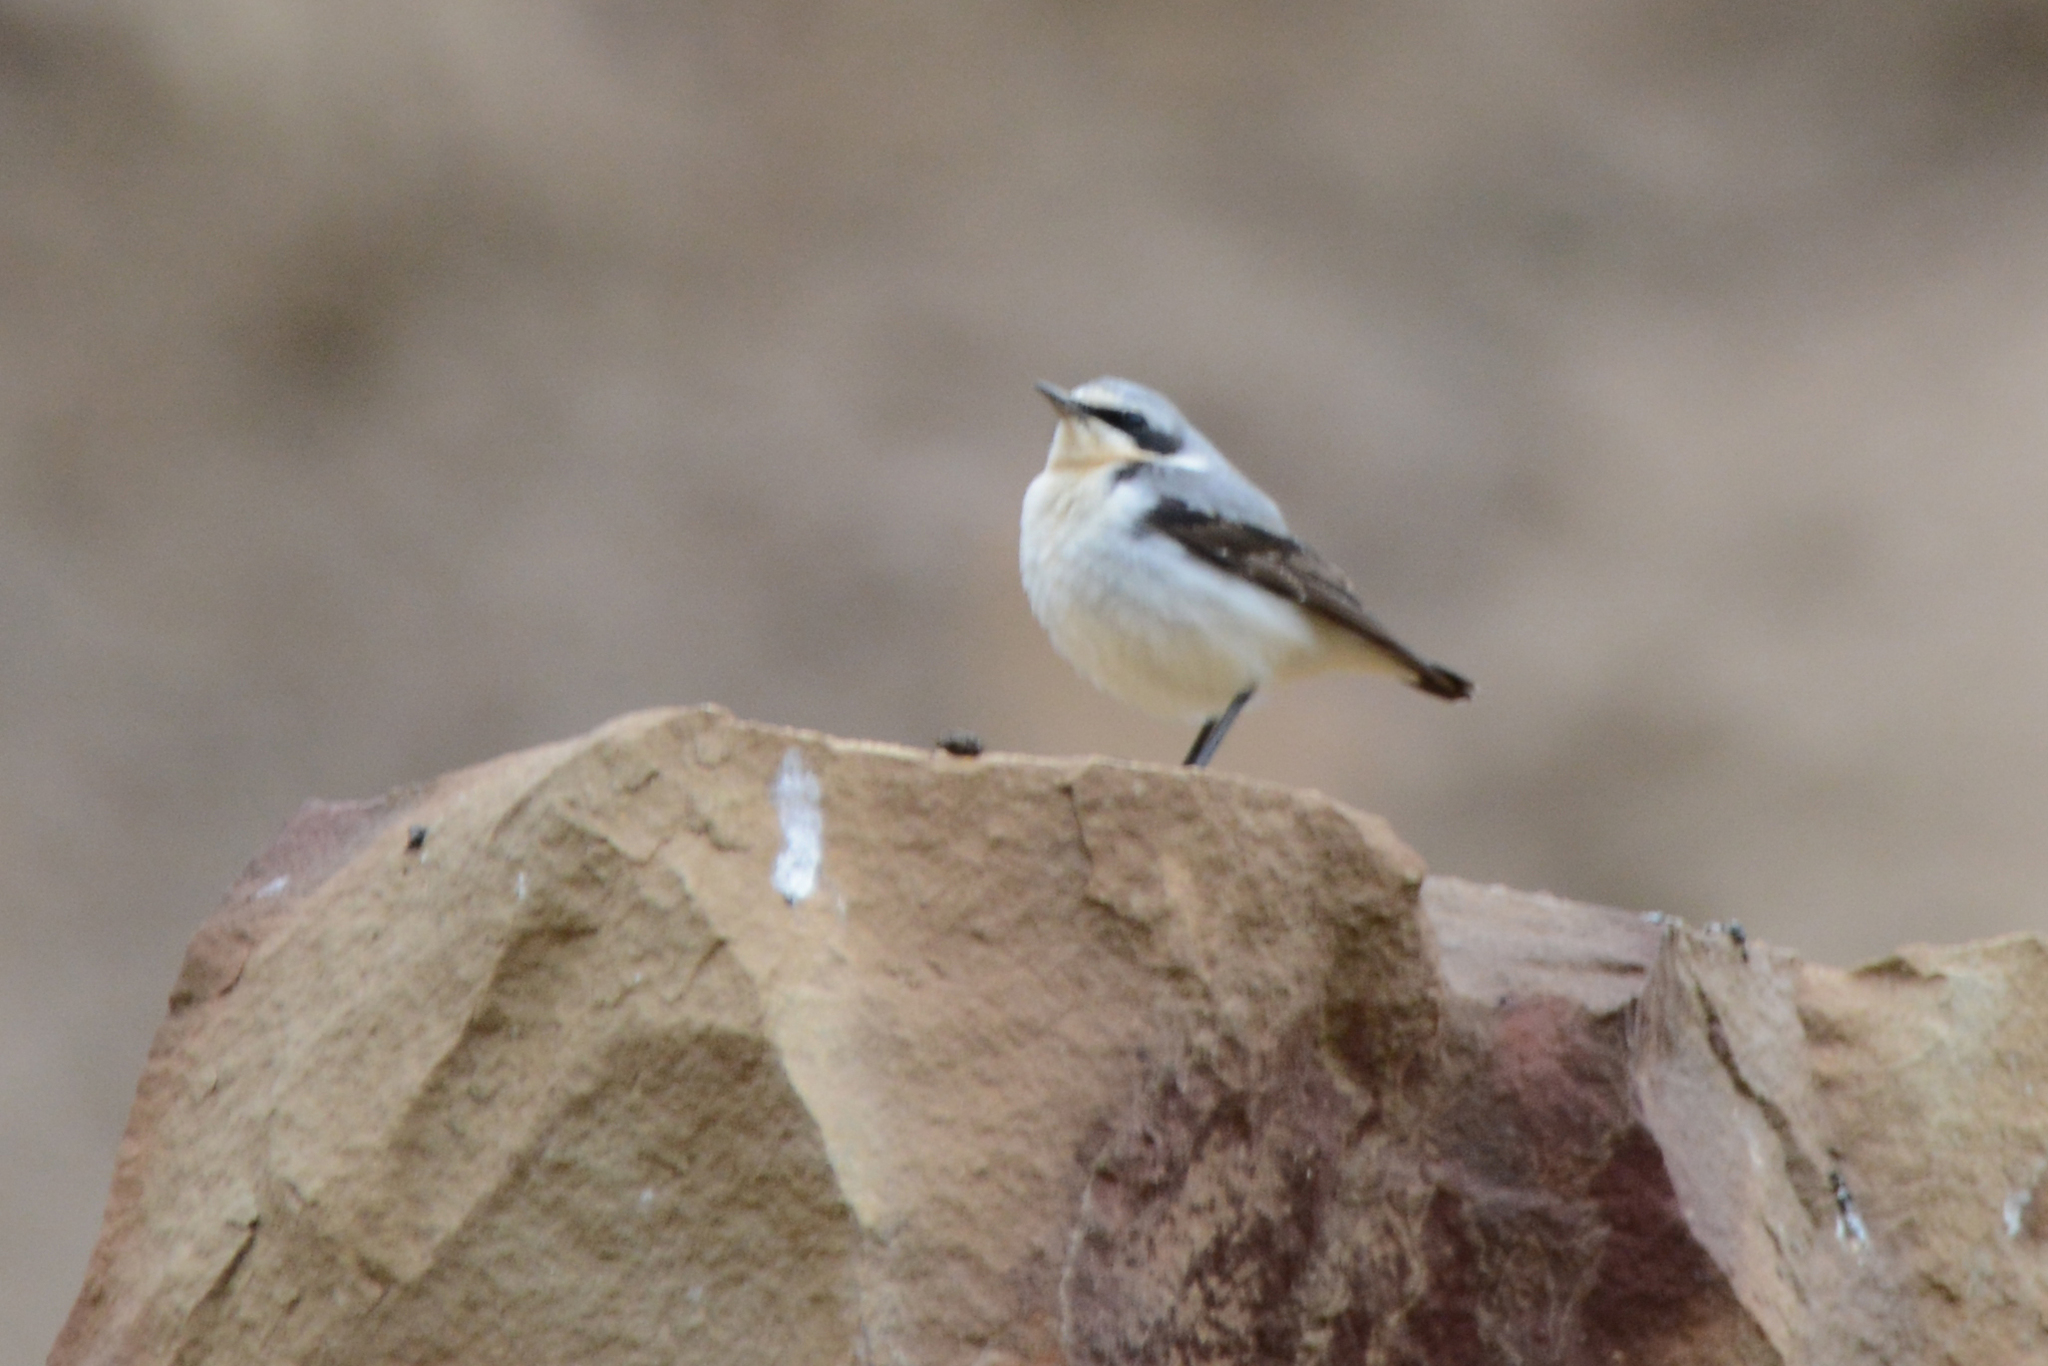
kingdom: Animalia
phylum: Chordata
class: Aves
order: Passeriformes
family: Muscicapidae
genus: Oenanthe
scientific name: Oenanthe oenanthe
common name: Northern wheatear
